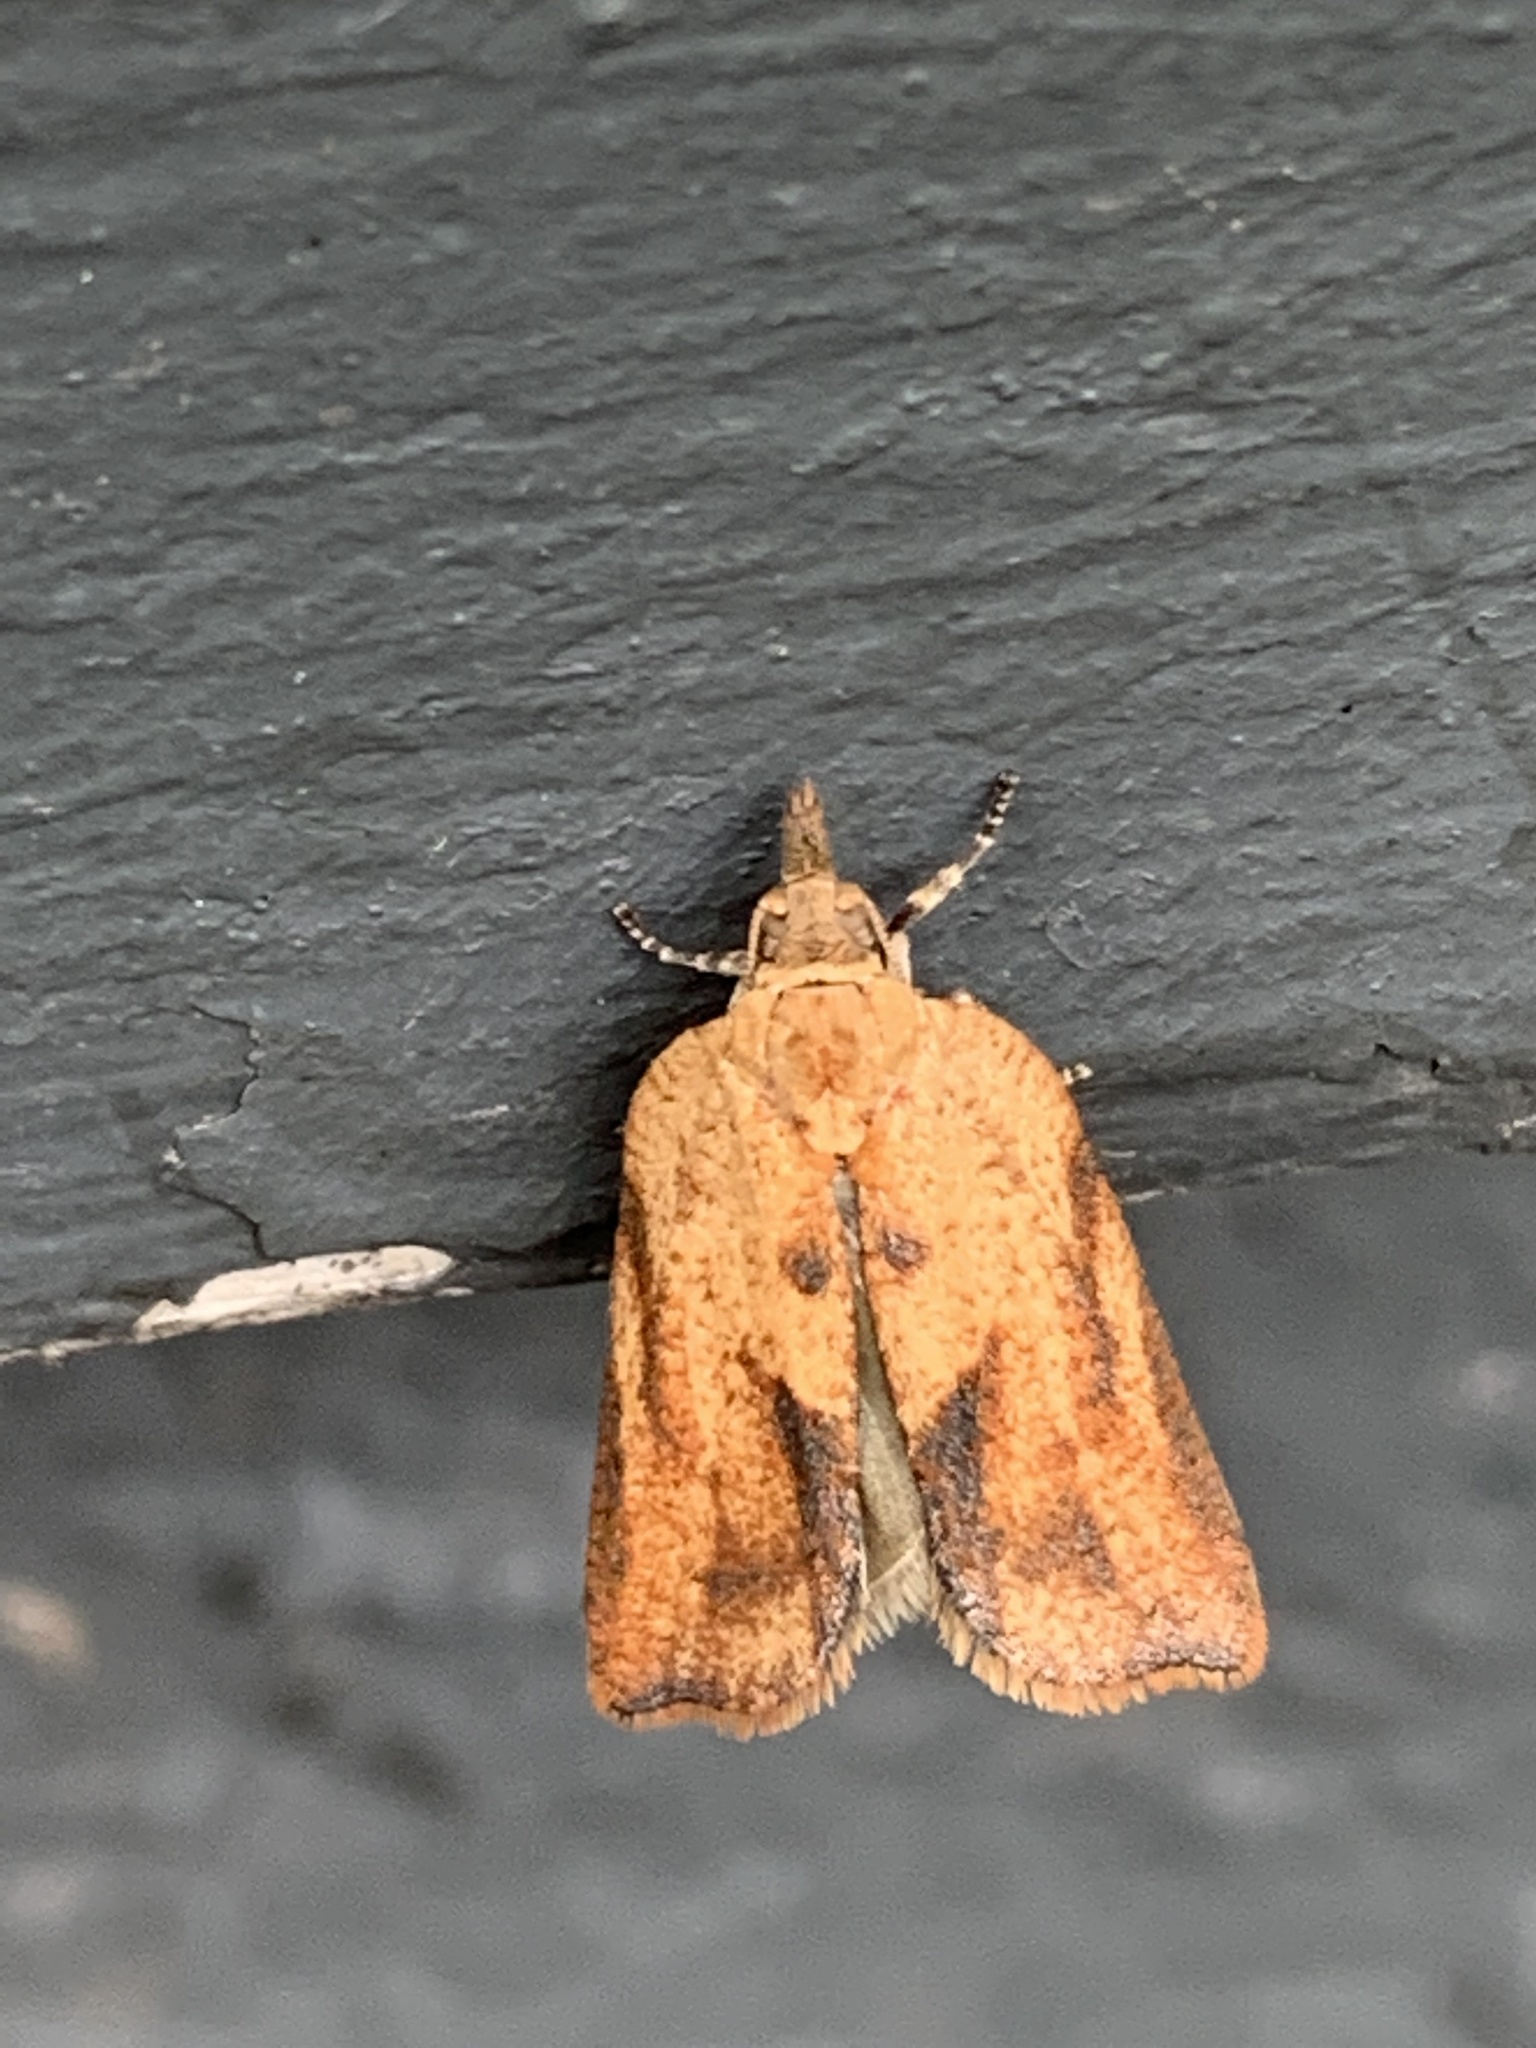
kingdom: Animalia
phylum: Arthropoda
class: Insecta
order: Lepidoptera
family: Tortricidae
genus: Epiphyas
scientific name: Epiphyas postvittana
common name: Light brown apple moth
